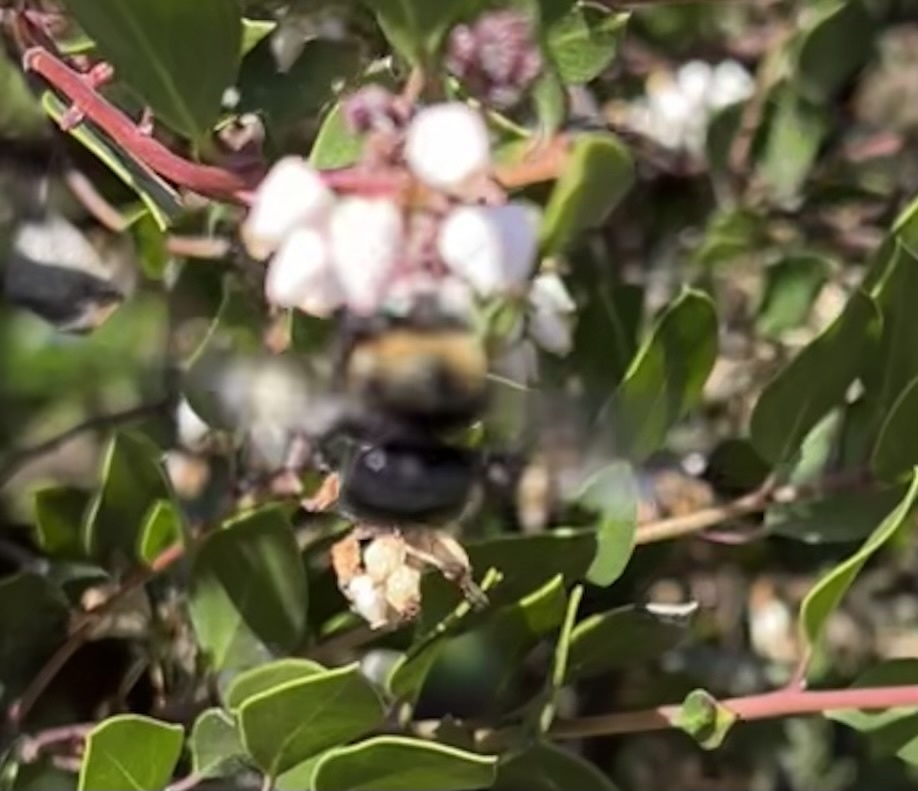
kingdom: Animalia
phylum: Arthropoda
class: Insecta
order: Hymenoptera
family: Apidae
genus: Xylocopa
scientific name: Xylocopa tabaniformis
